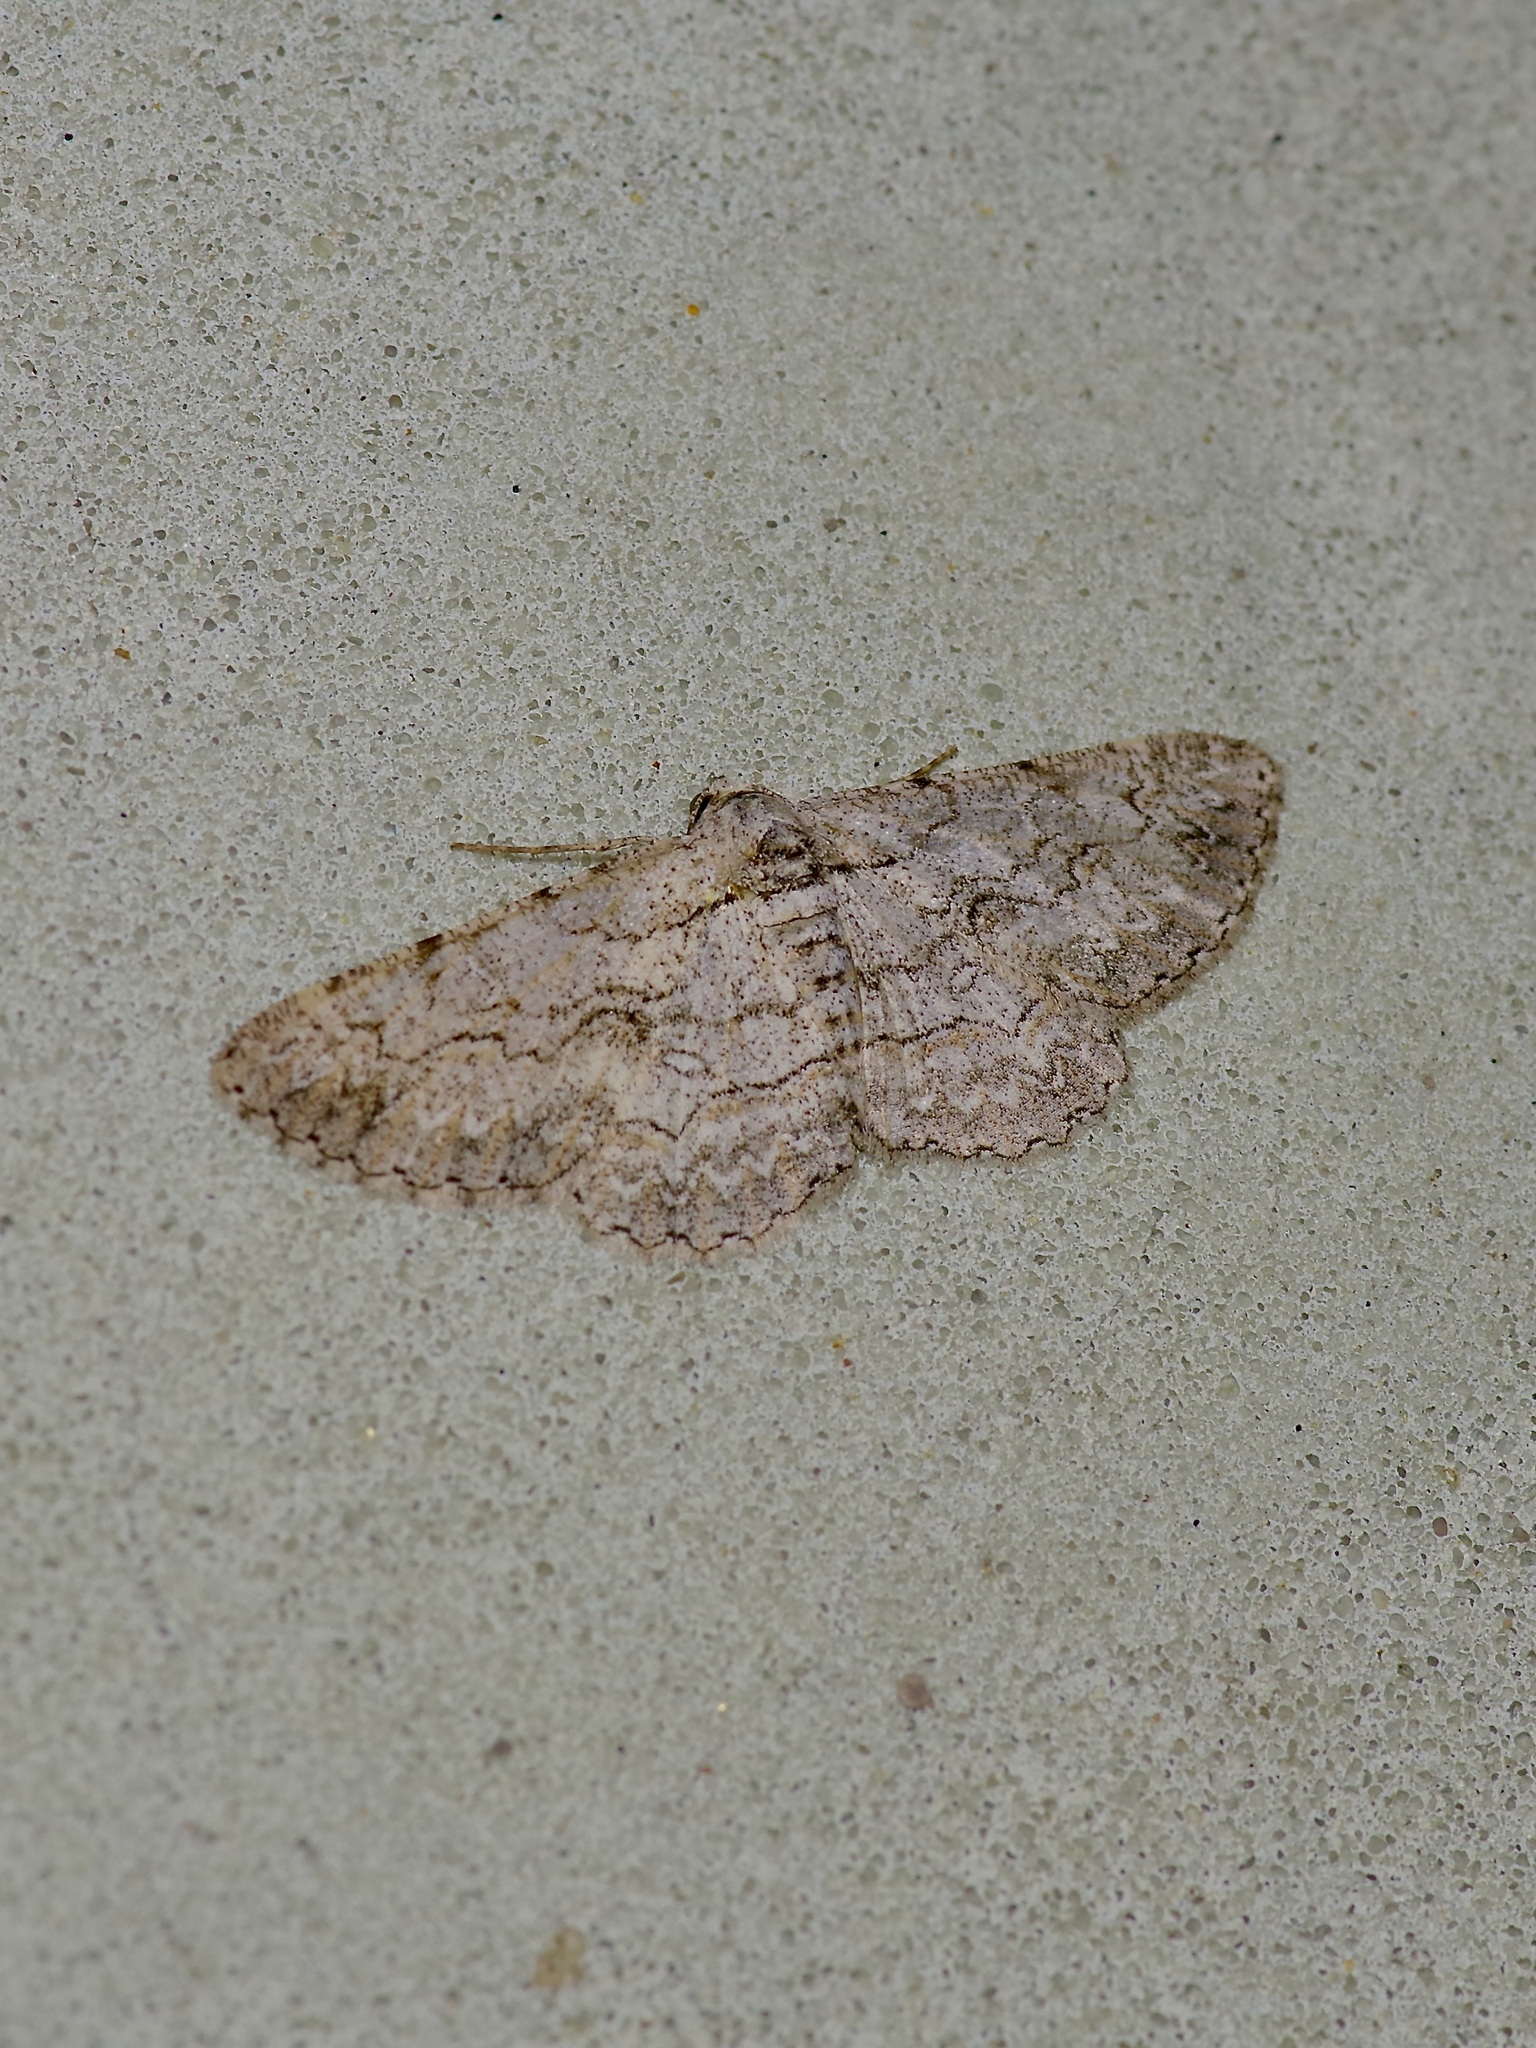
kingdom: Animalia
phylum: Arthropoda
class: Insecta
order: Lepidoptera
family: Geometridae
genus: Iridopsis
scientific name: Iridopsis defectaria
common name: Brown-shaded gray
